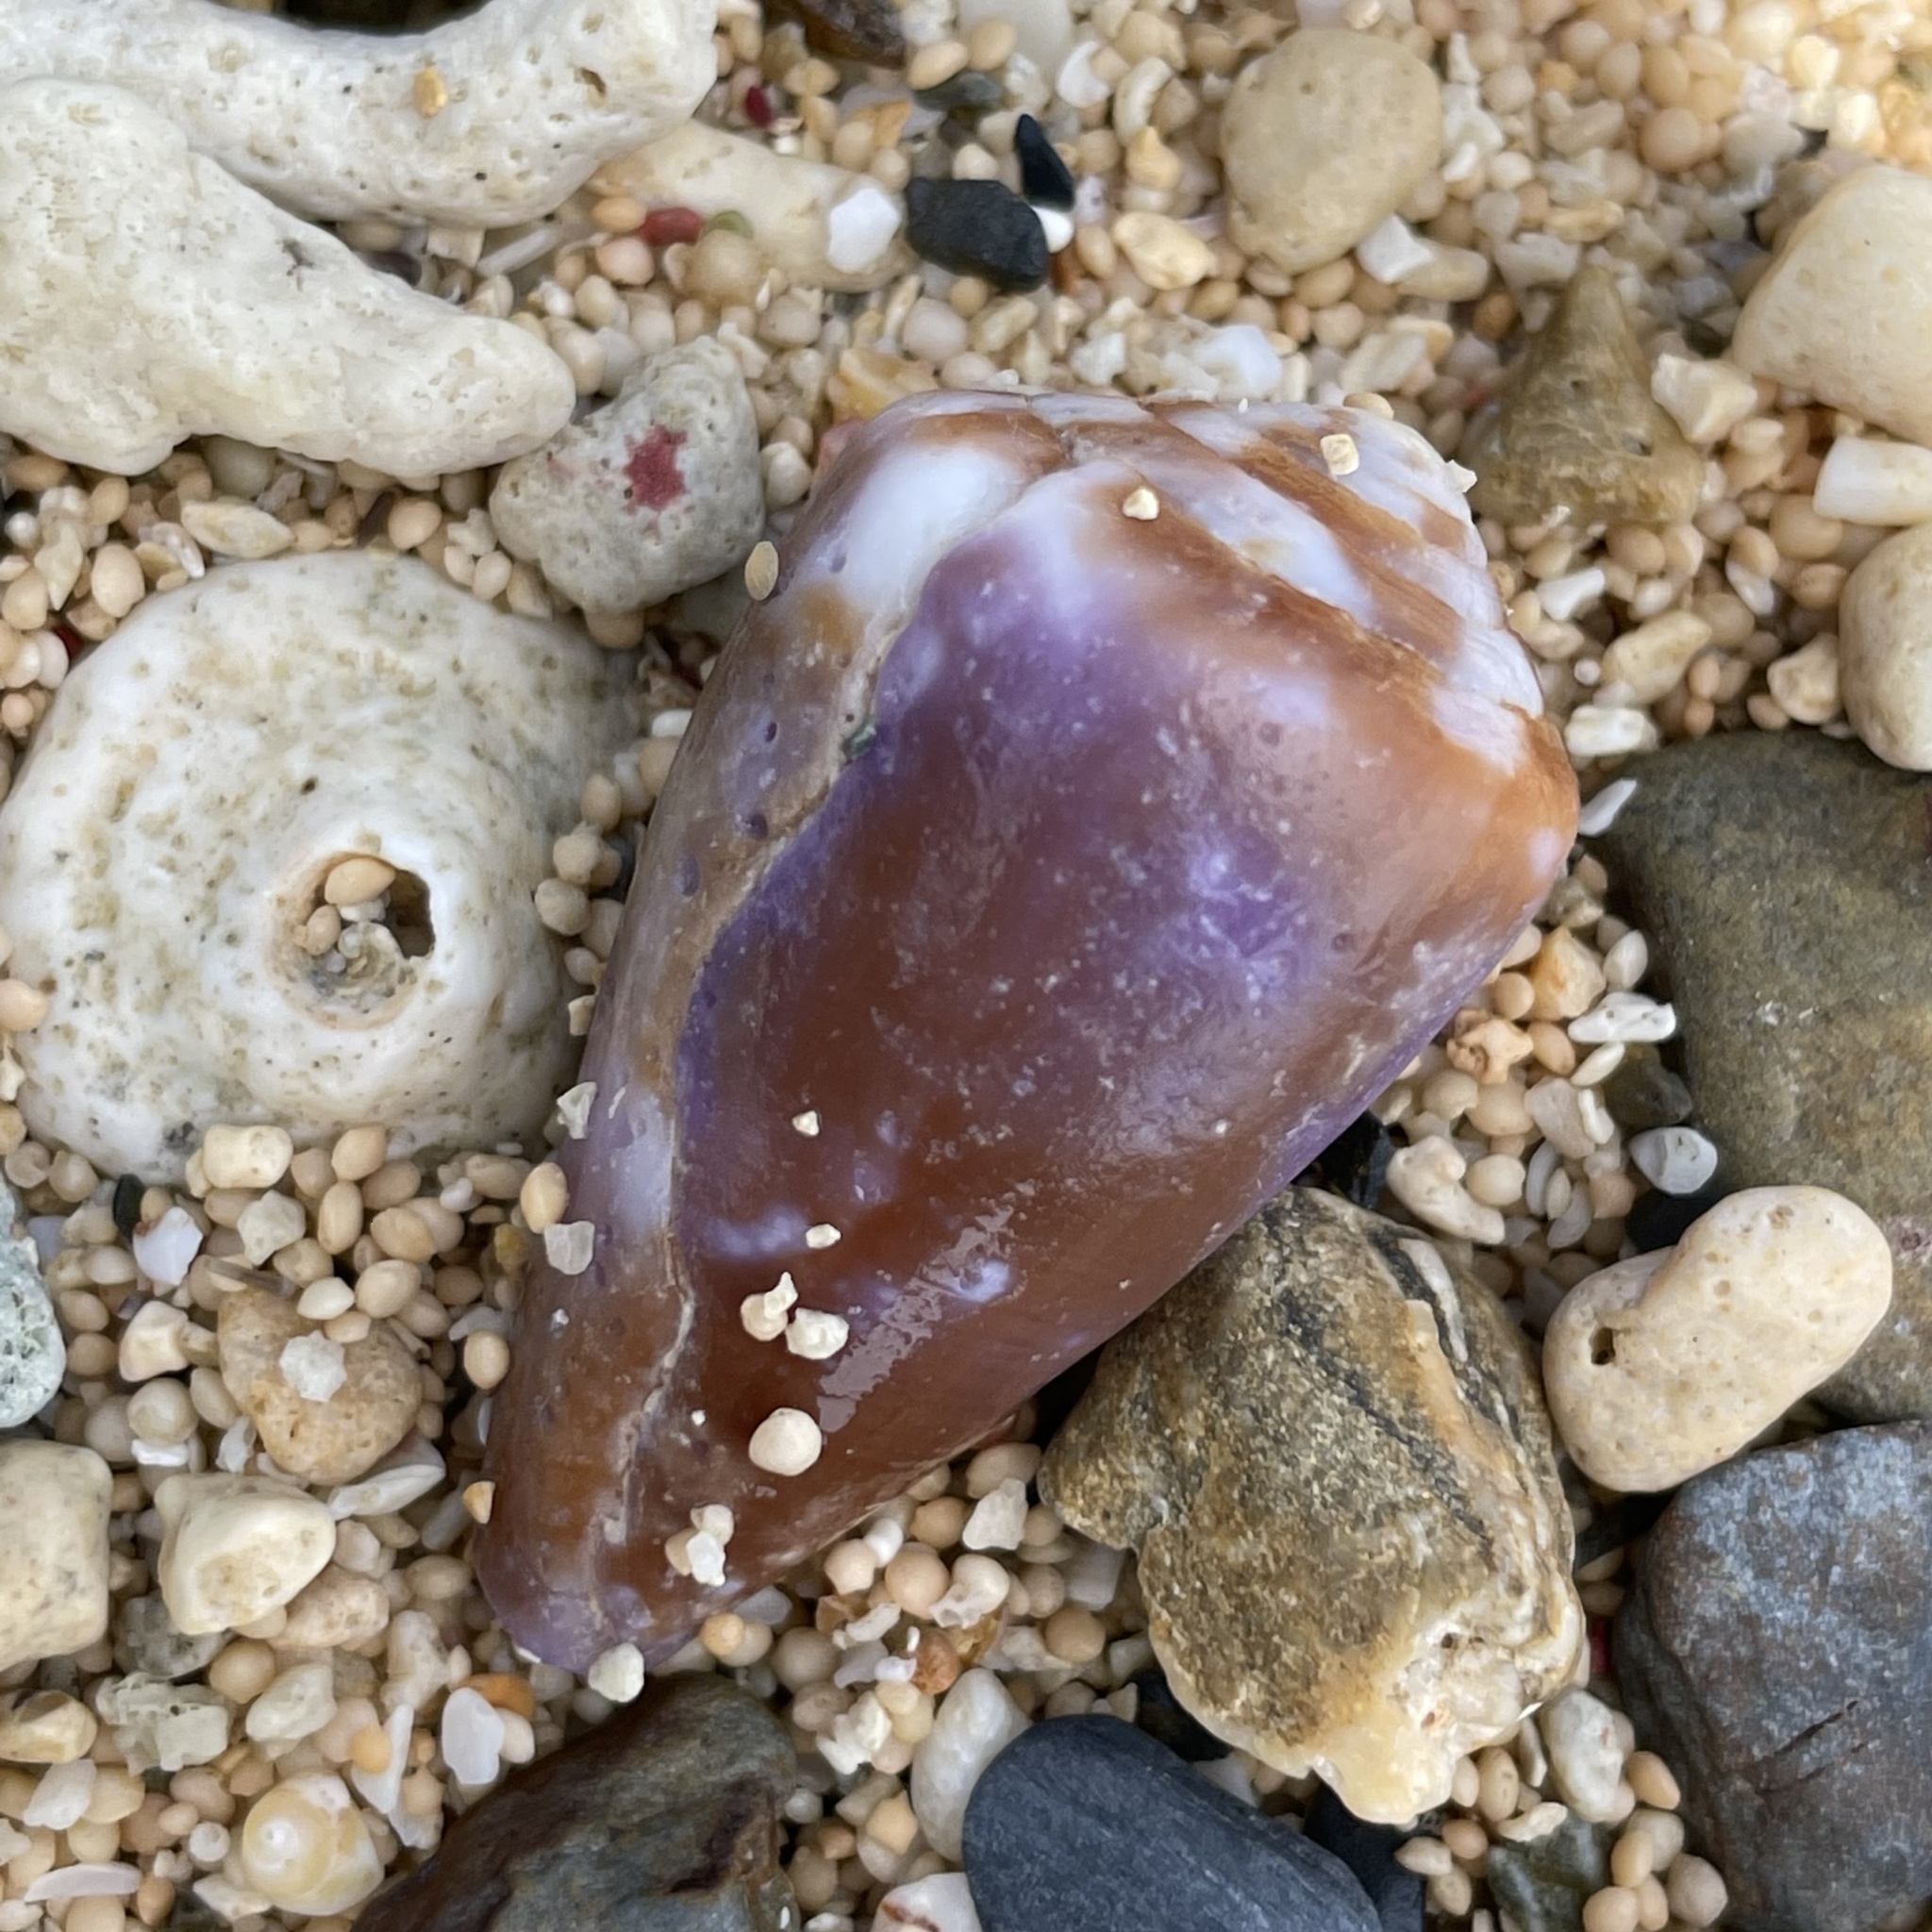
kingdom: Animalia
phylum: Mollusca
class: Gastropoda
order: Neogastropoda
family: Conidae
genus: Conus
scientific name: Conus rattus
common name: Rat cone
